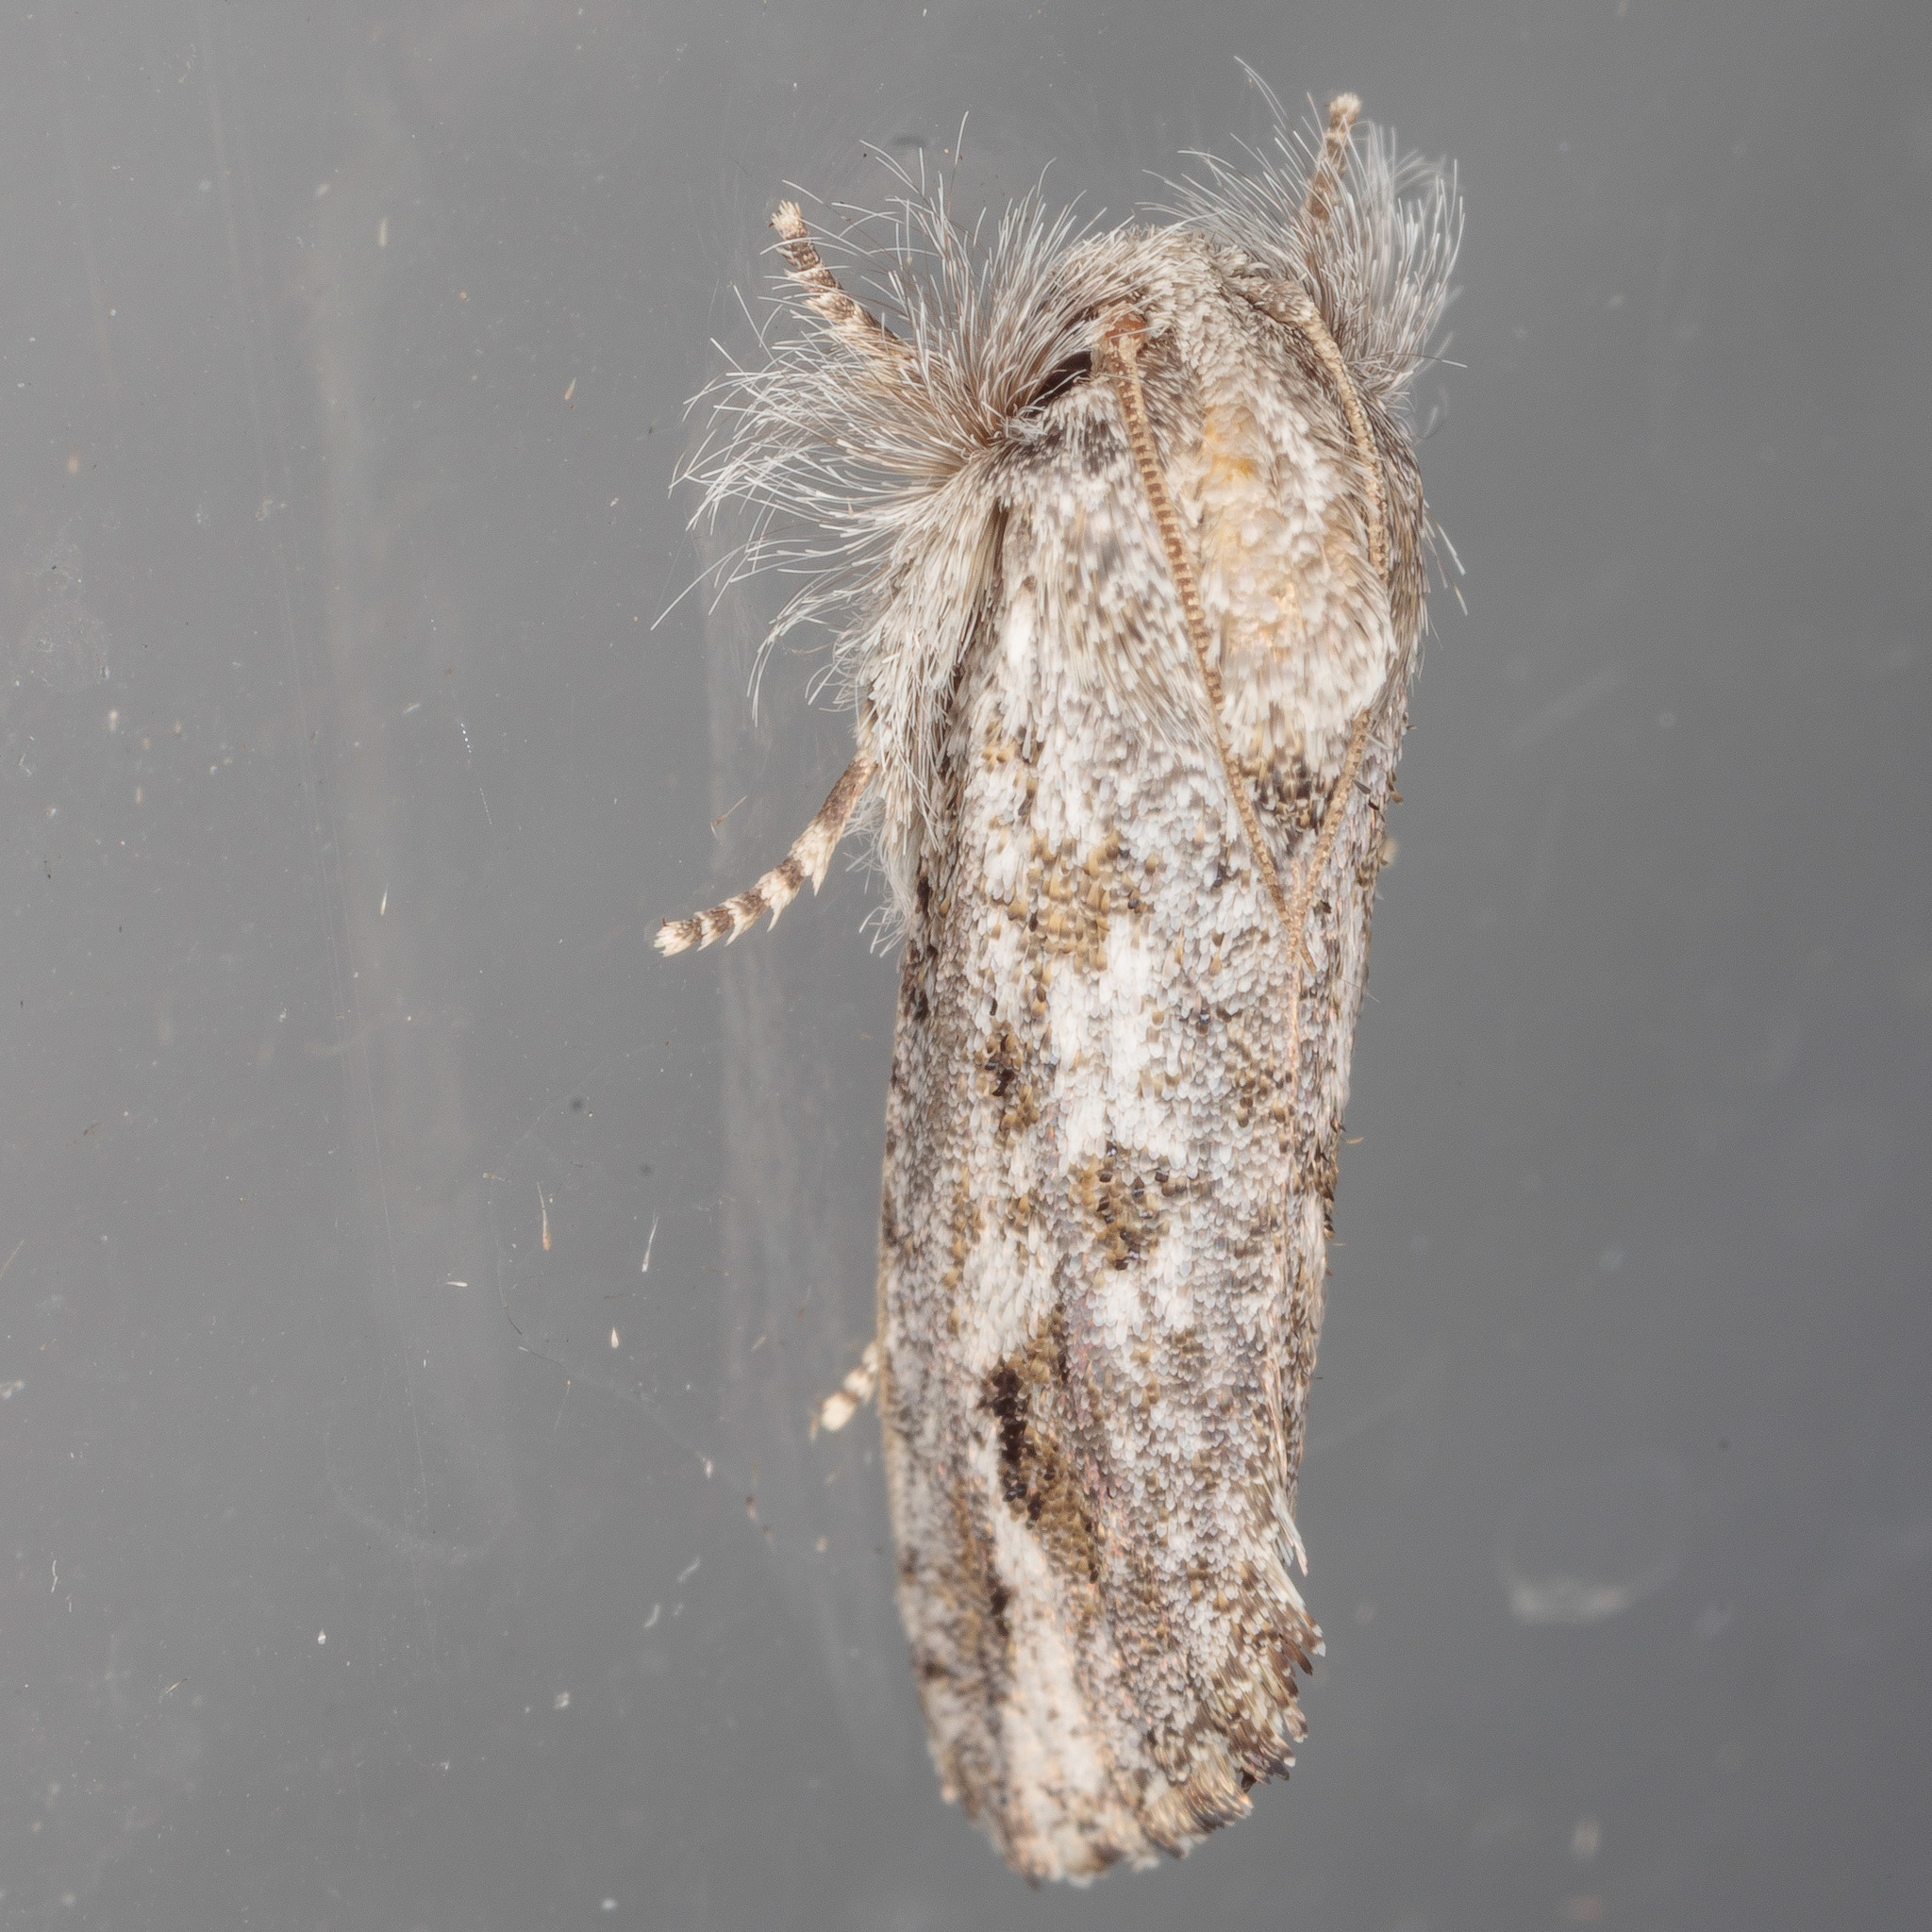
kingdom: Animalia
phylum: Arthropoda
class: Insecta
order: Lepidoptera
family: Tineidae
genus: Acrolophus
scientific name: Acrolophus griseus
